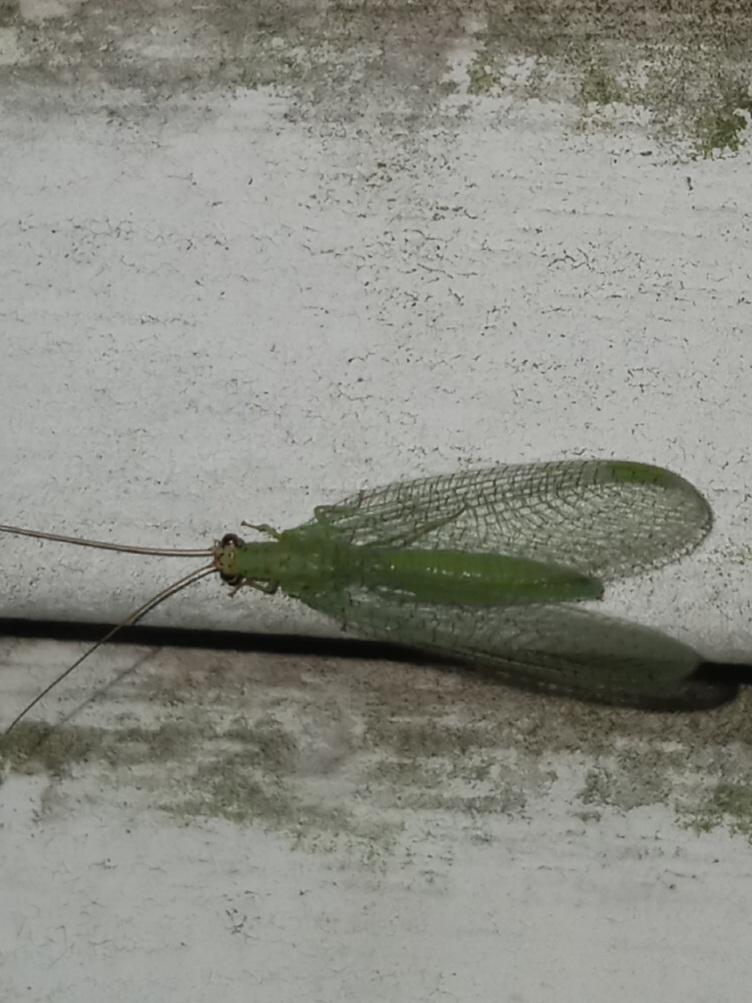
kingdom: Animalia
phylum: Arthropoda
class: Insecta
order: Neuroptera
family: Chrysopidae
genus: Chrysopa
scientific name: Chrysopa oculata
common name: Golden-eyed lacewing
